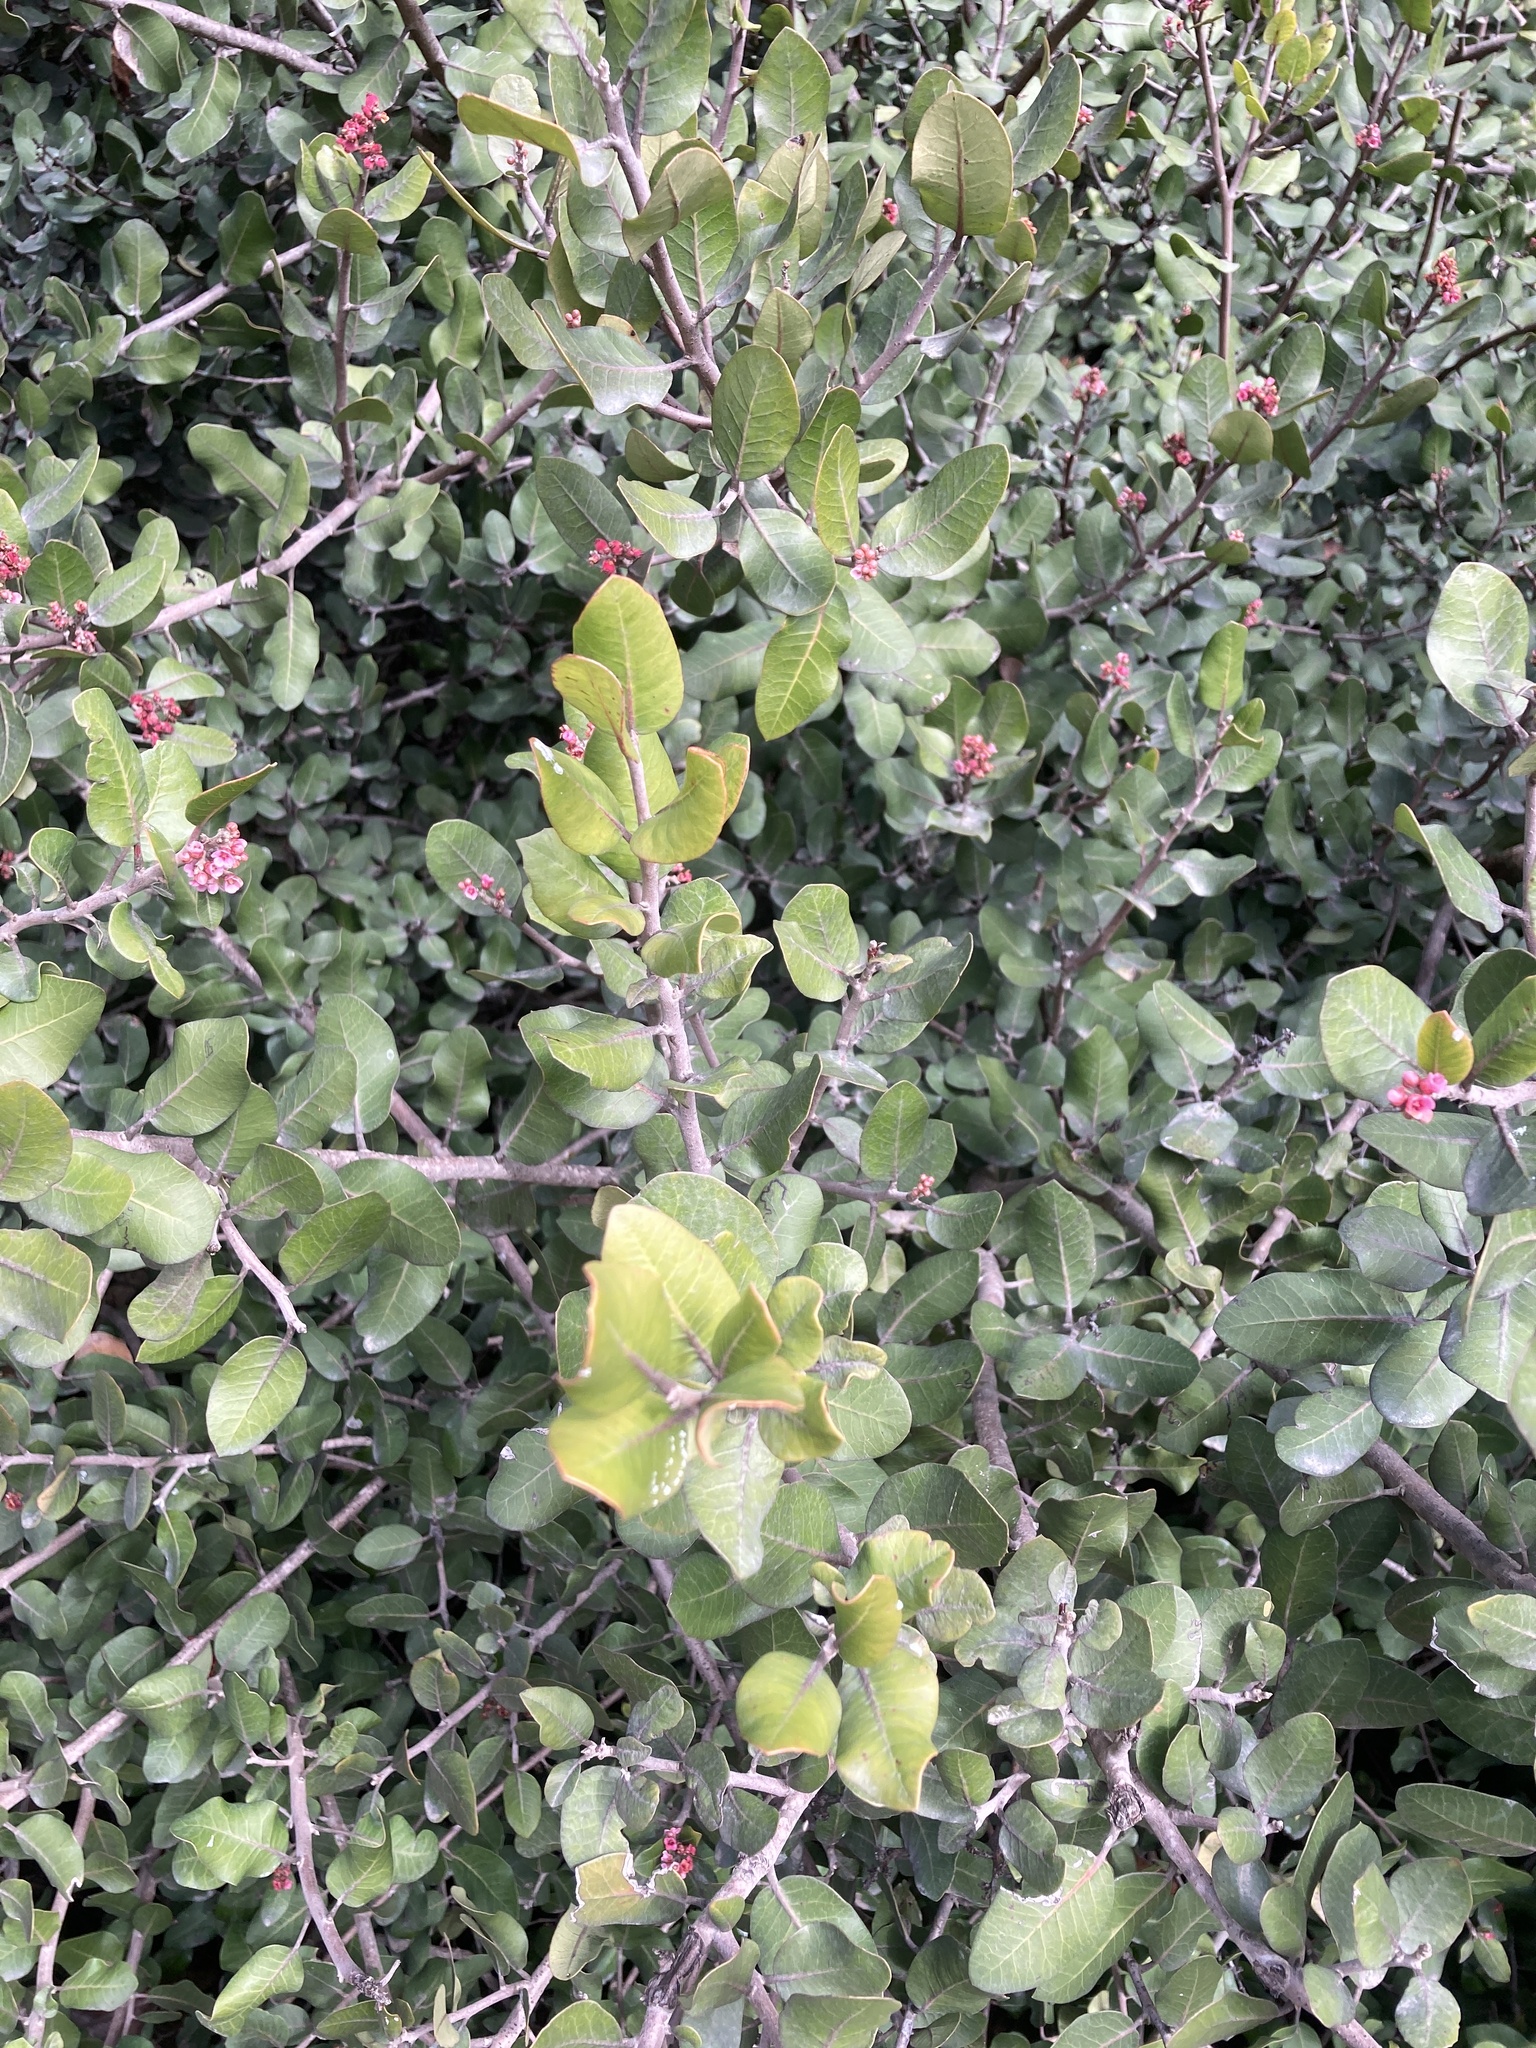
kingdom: Plantae
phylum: Tracheophyta
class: Magnoliopsida
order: Sapindales
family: Anacardiaceae
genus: Rhus
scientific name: Rhus integrifolia
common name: Lemonade sumac
